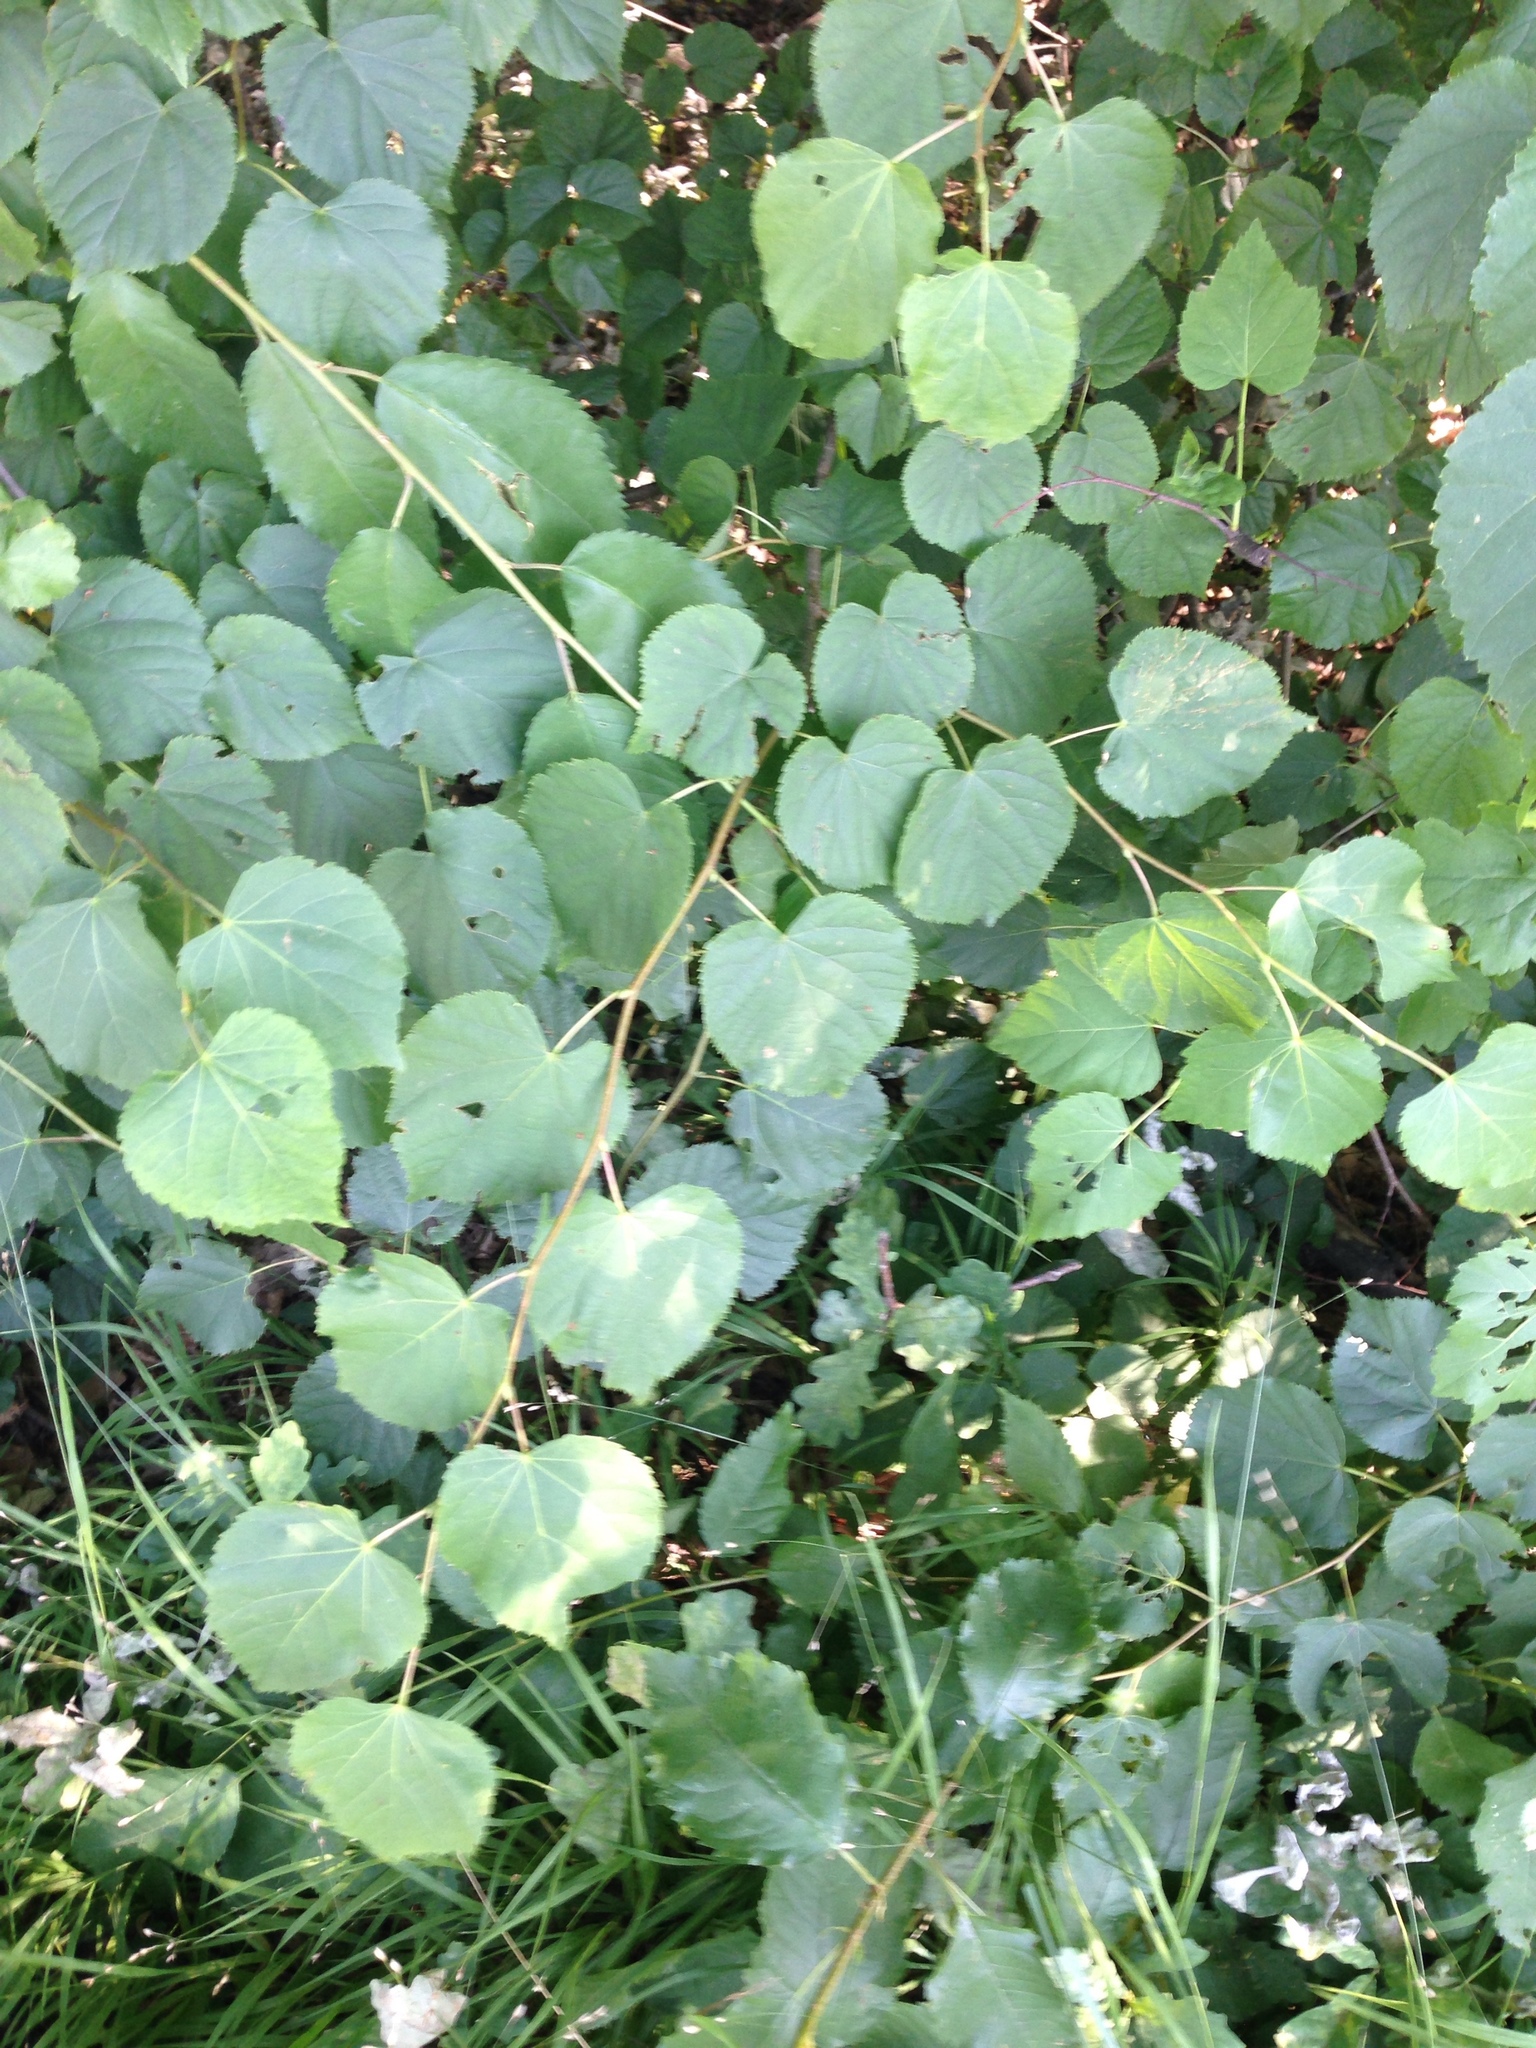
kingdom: Plantae
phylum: Tracheophyta
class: Magnoliopsida
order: Malvales
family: Malvaceae
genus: Tilia
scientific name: Tilia cordata
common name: Small-leaved lime
